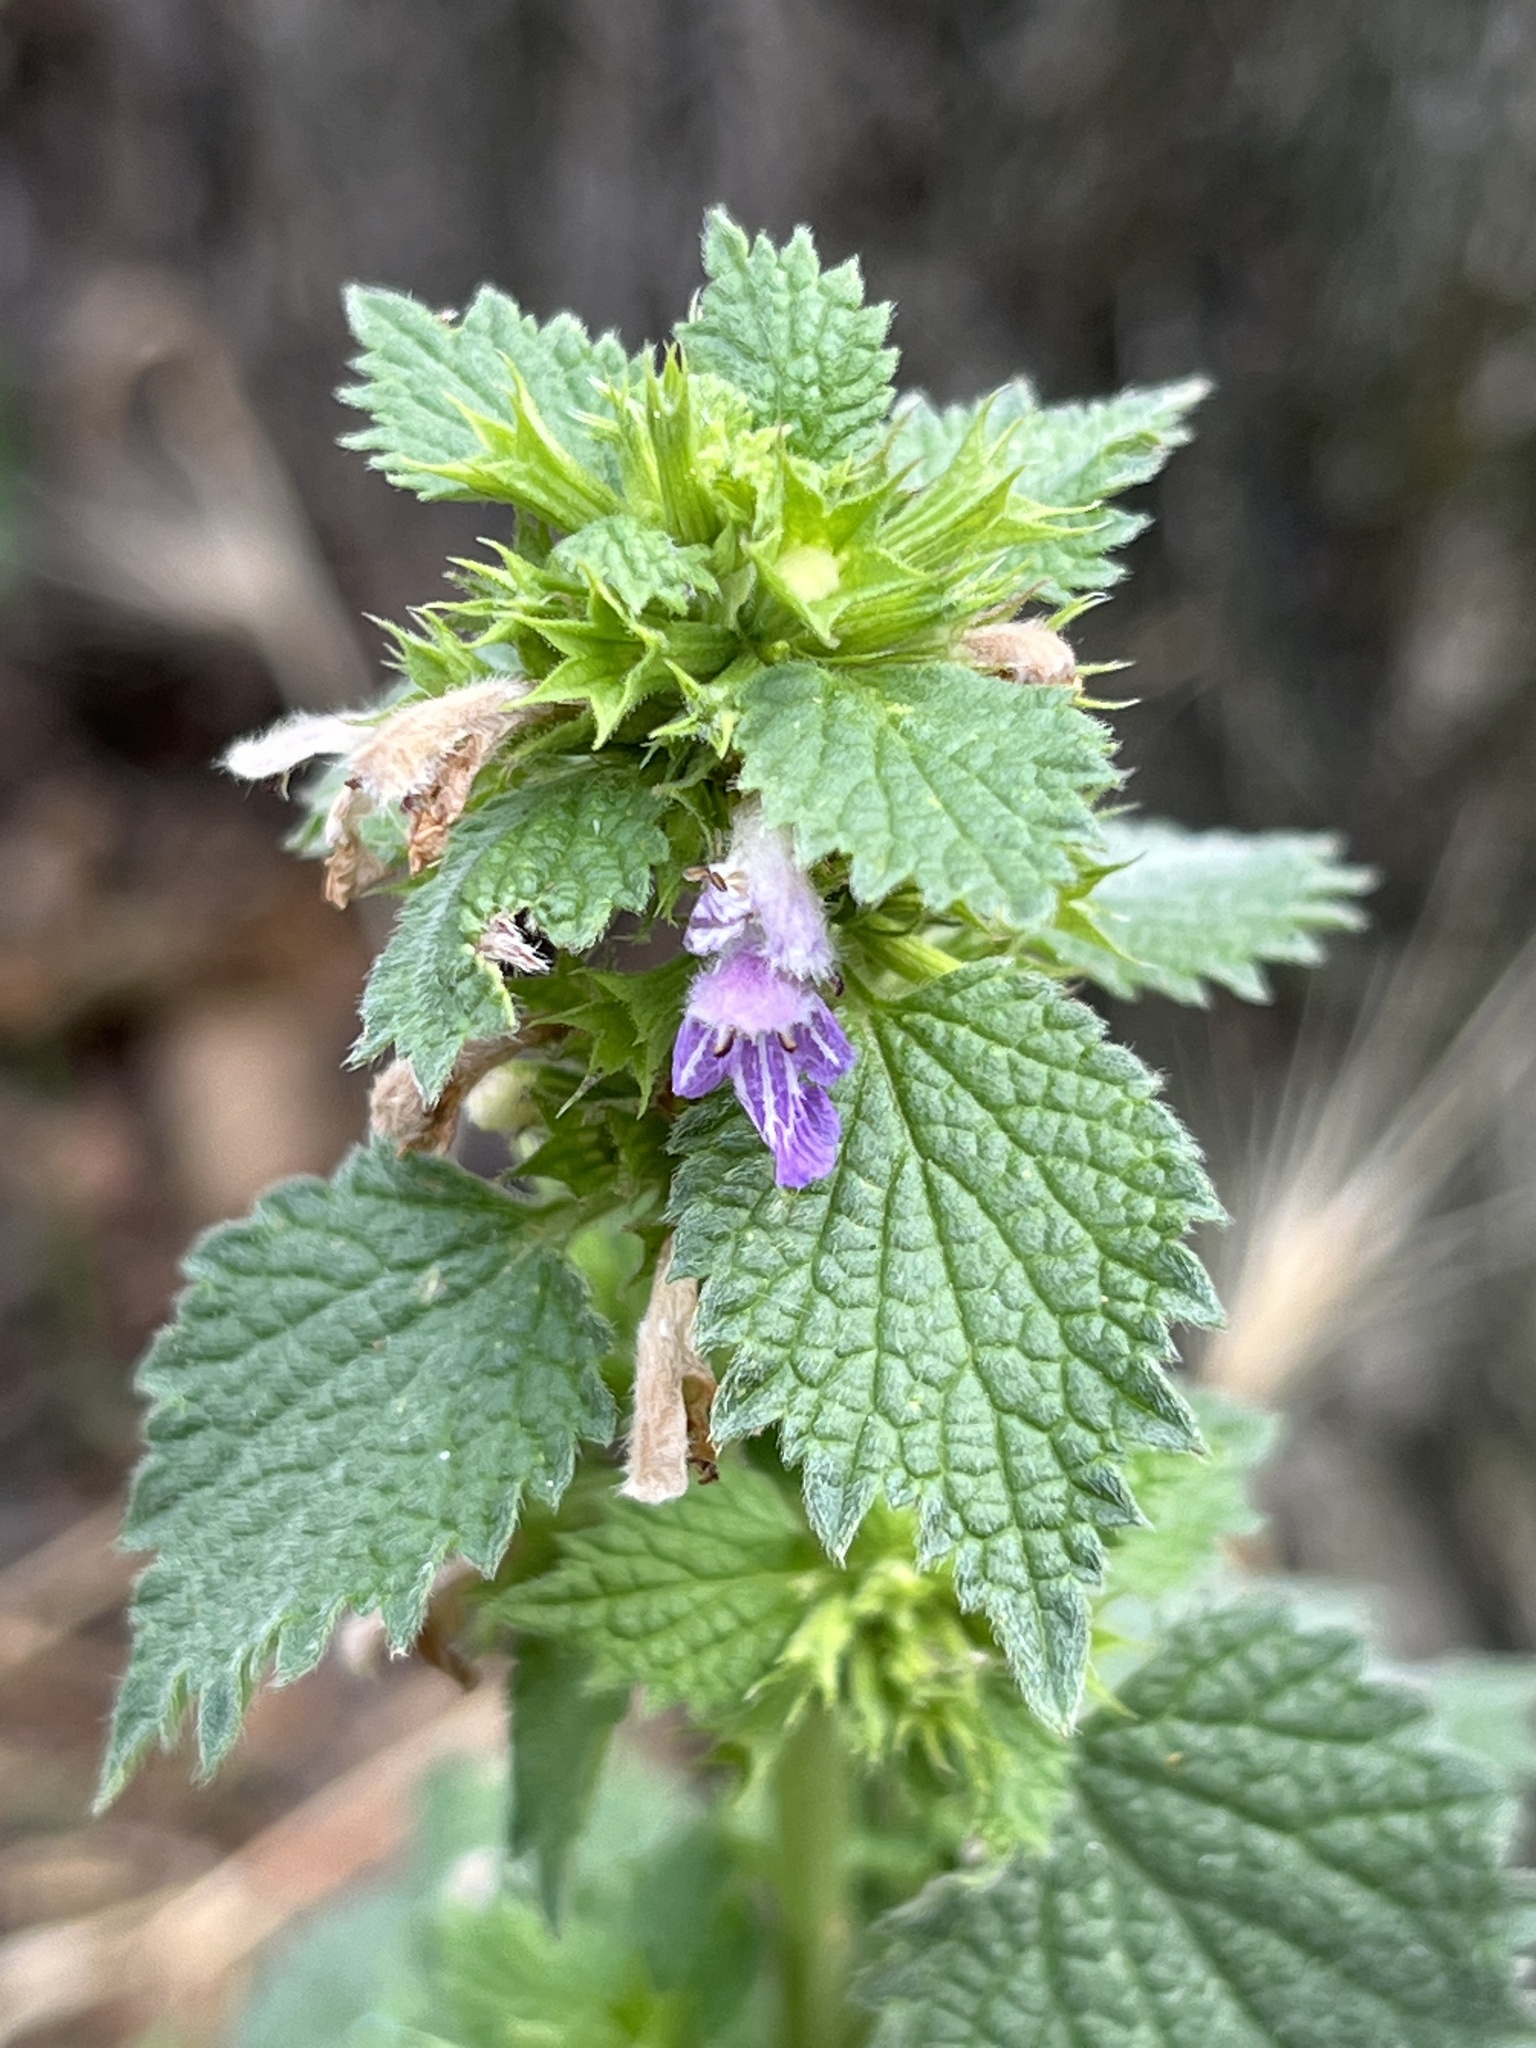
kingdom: Plantae
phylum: Tracheophyta
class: Magnoliopsida
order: Lamiales
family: Lamiaceae
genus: Ballota
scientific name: Ballota nigra
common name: Black horehound
